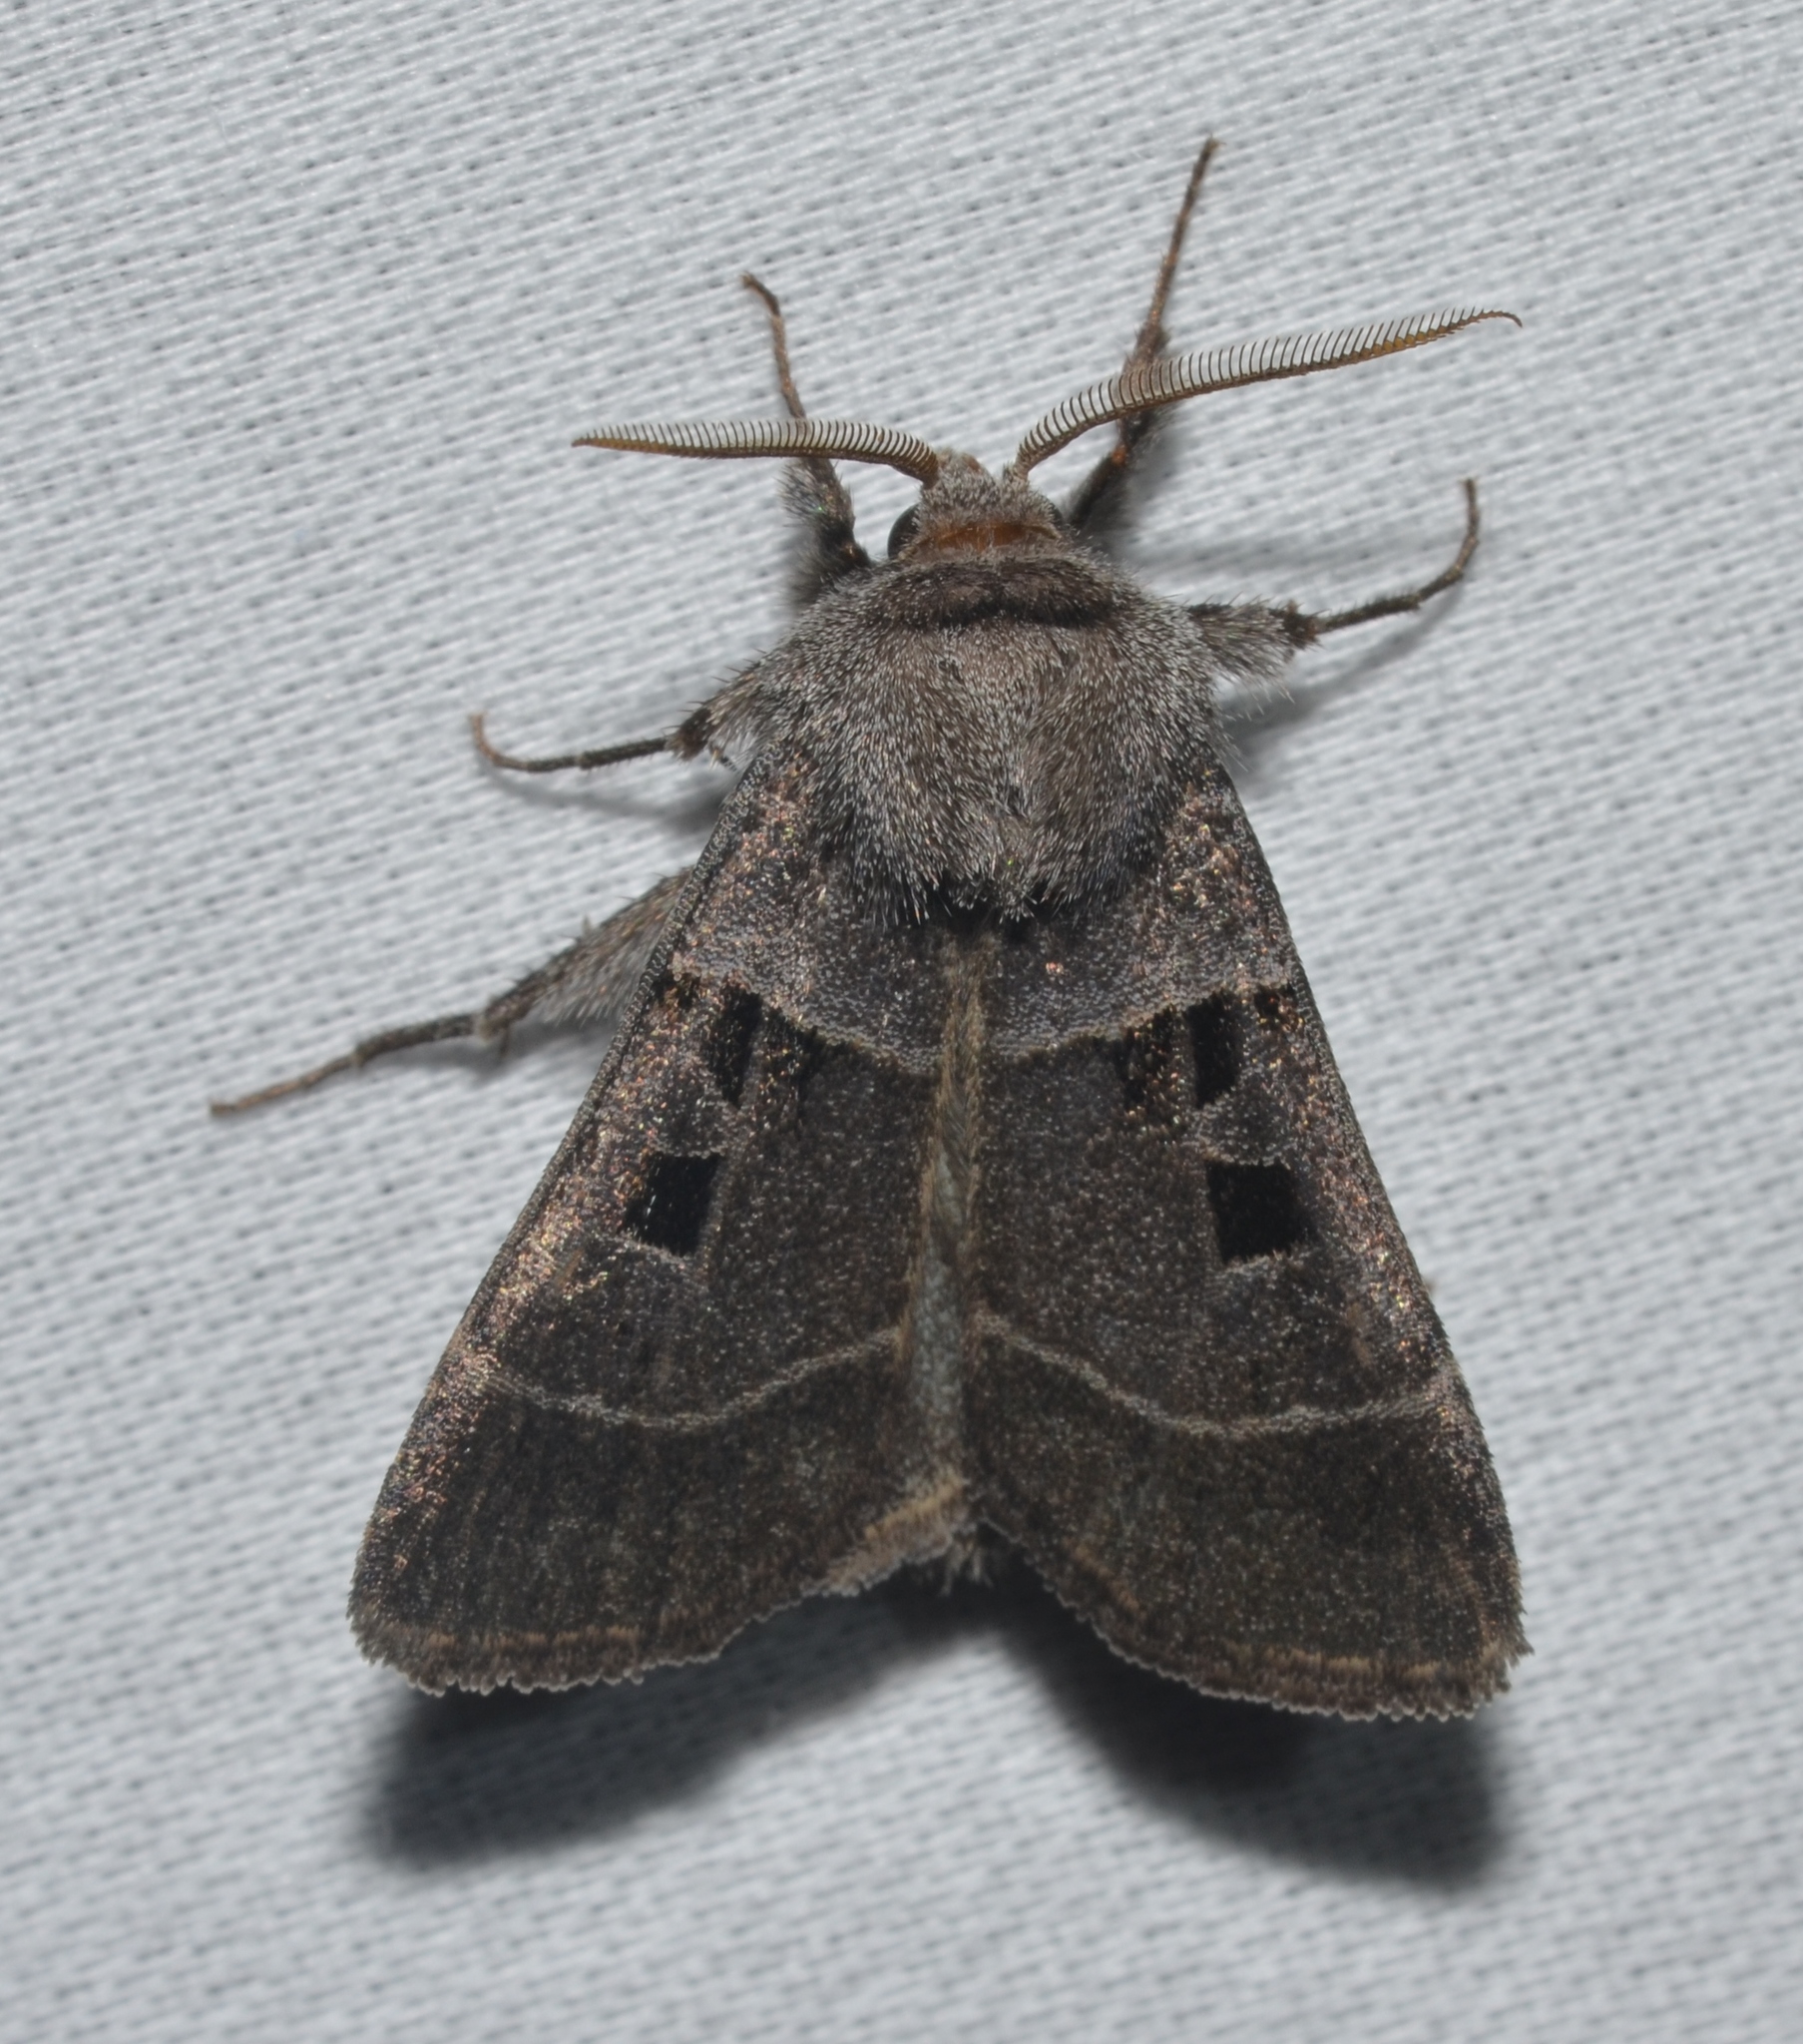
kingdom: Animalia
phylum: Arthropoda
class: Insecta
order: Lepidoptera
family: Noctuidae
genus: Agnorisma
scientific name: Agnorisma bollii
